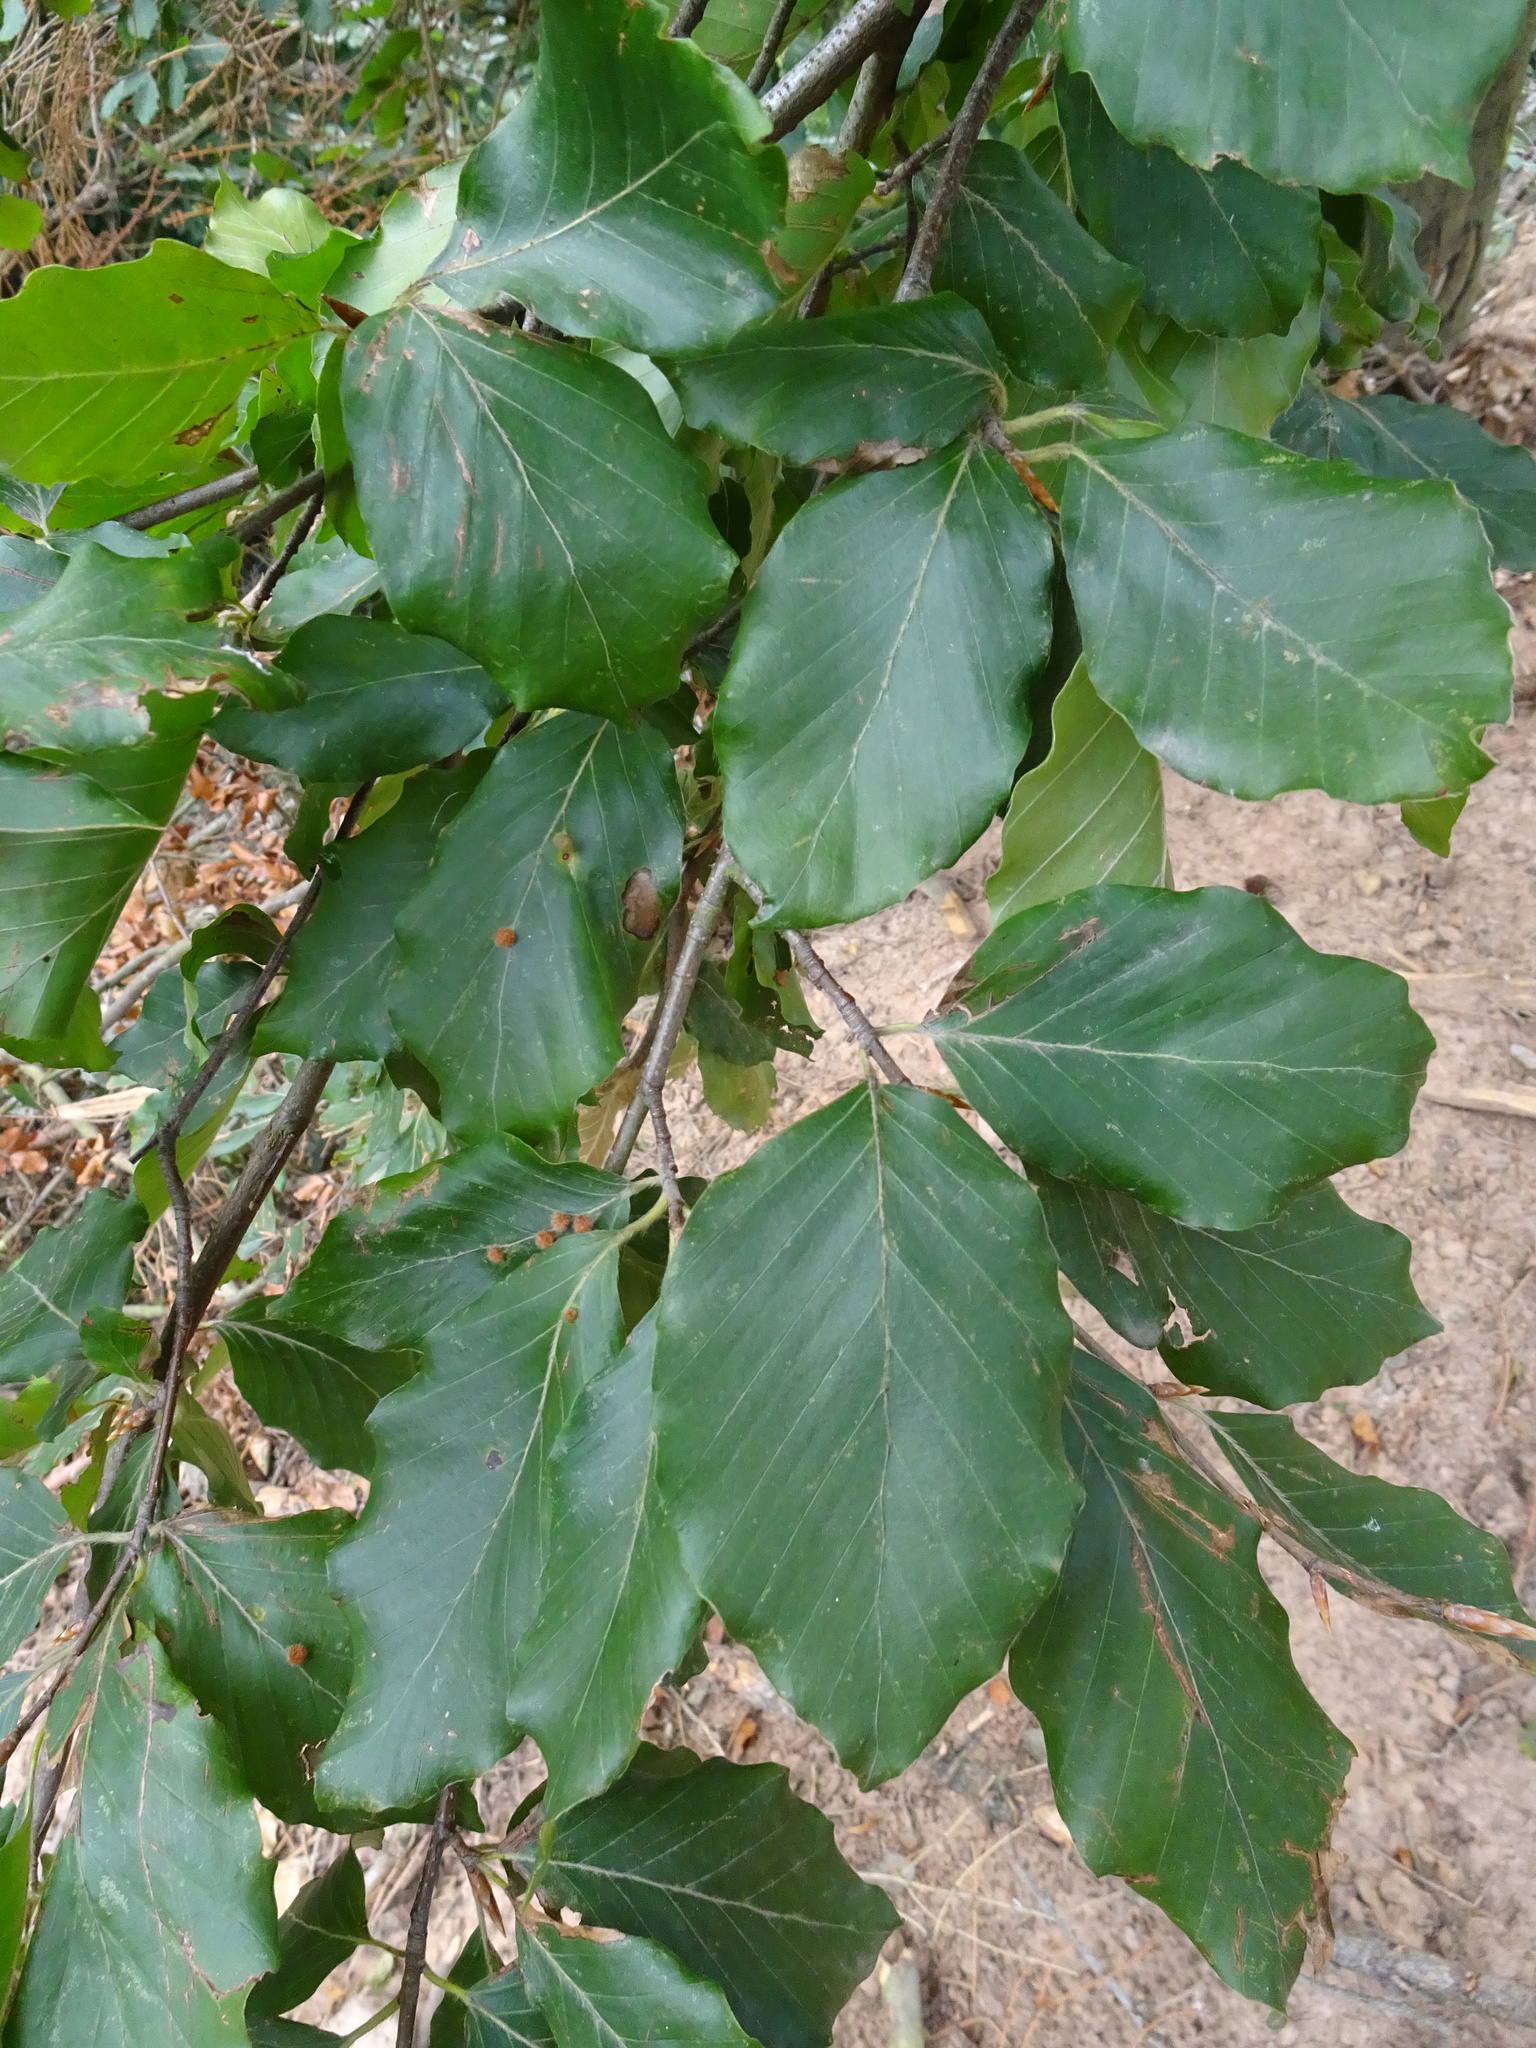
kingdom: Plantae
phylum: Tracheophyta
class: Magnoliopsida
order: Fagales
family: Fagaceae
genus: Fagus
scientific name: Fagus sylvatica
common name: Beech
